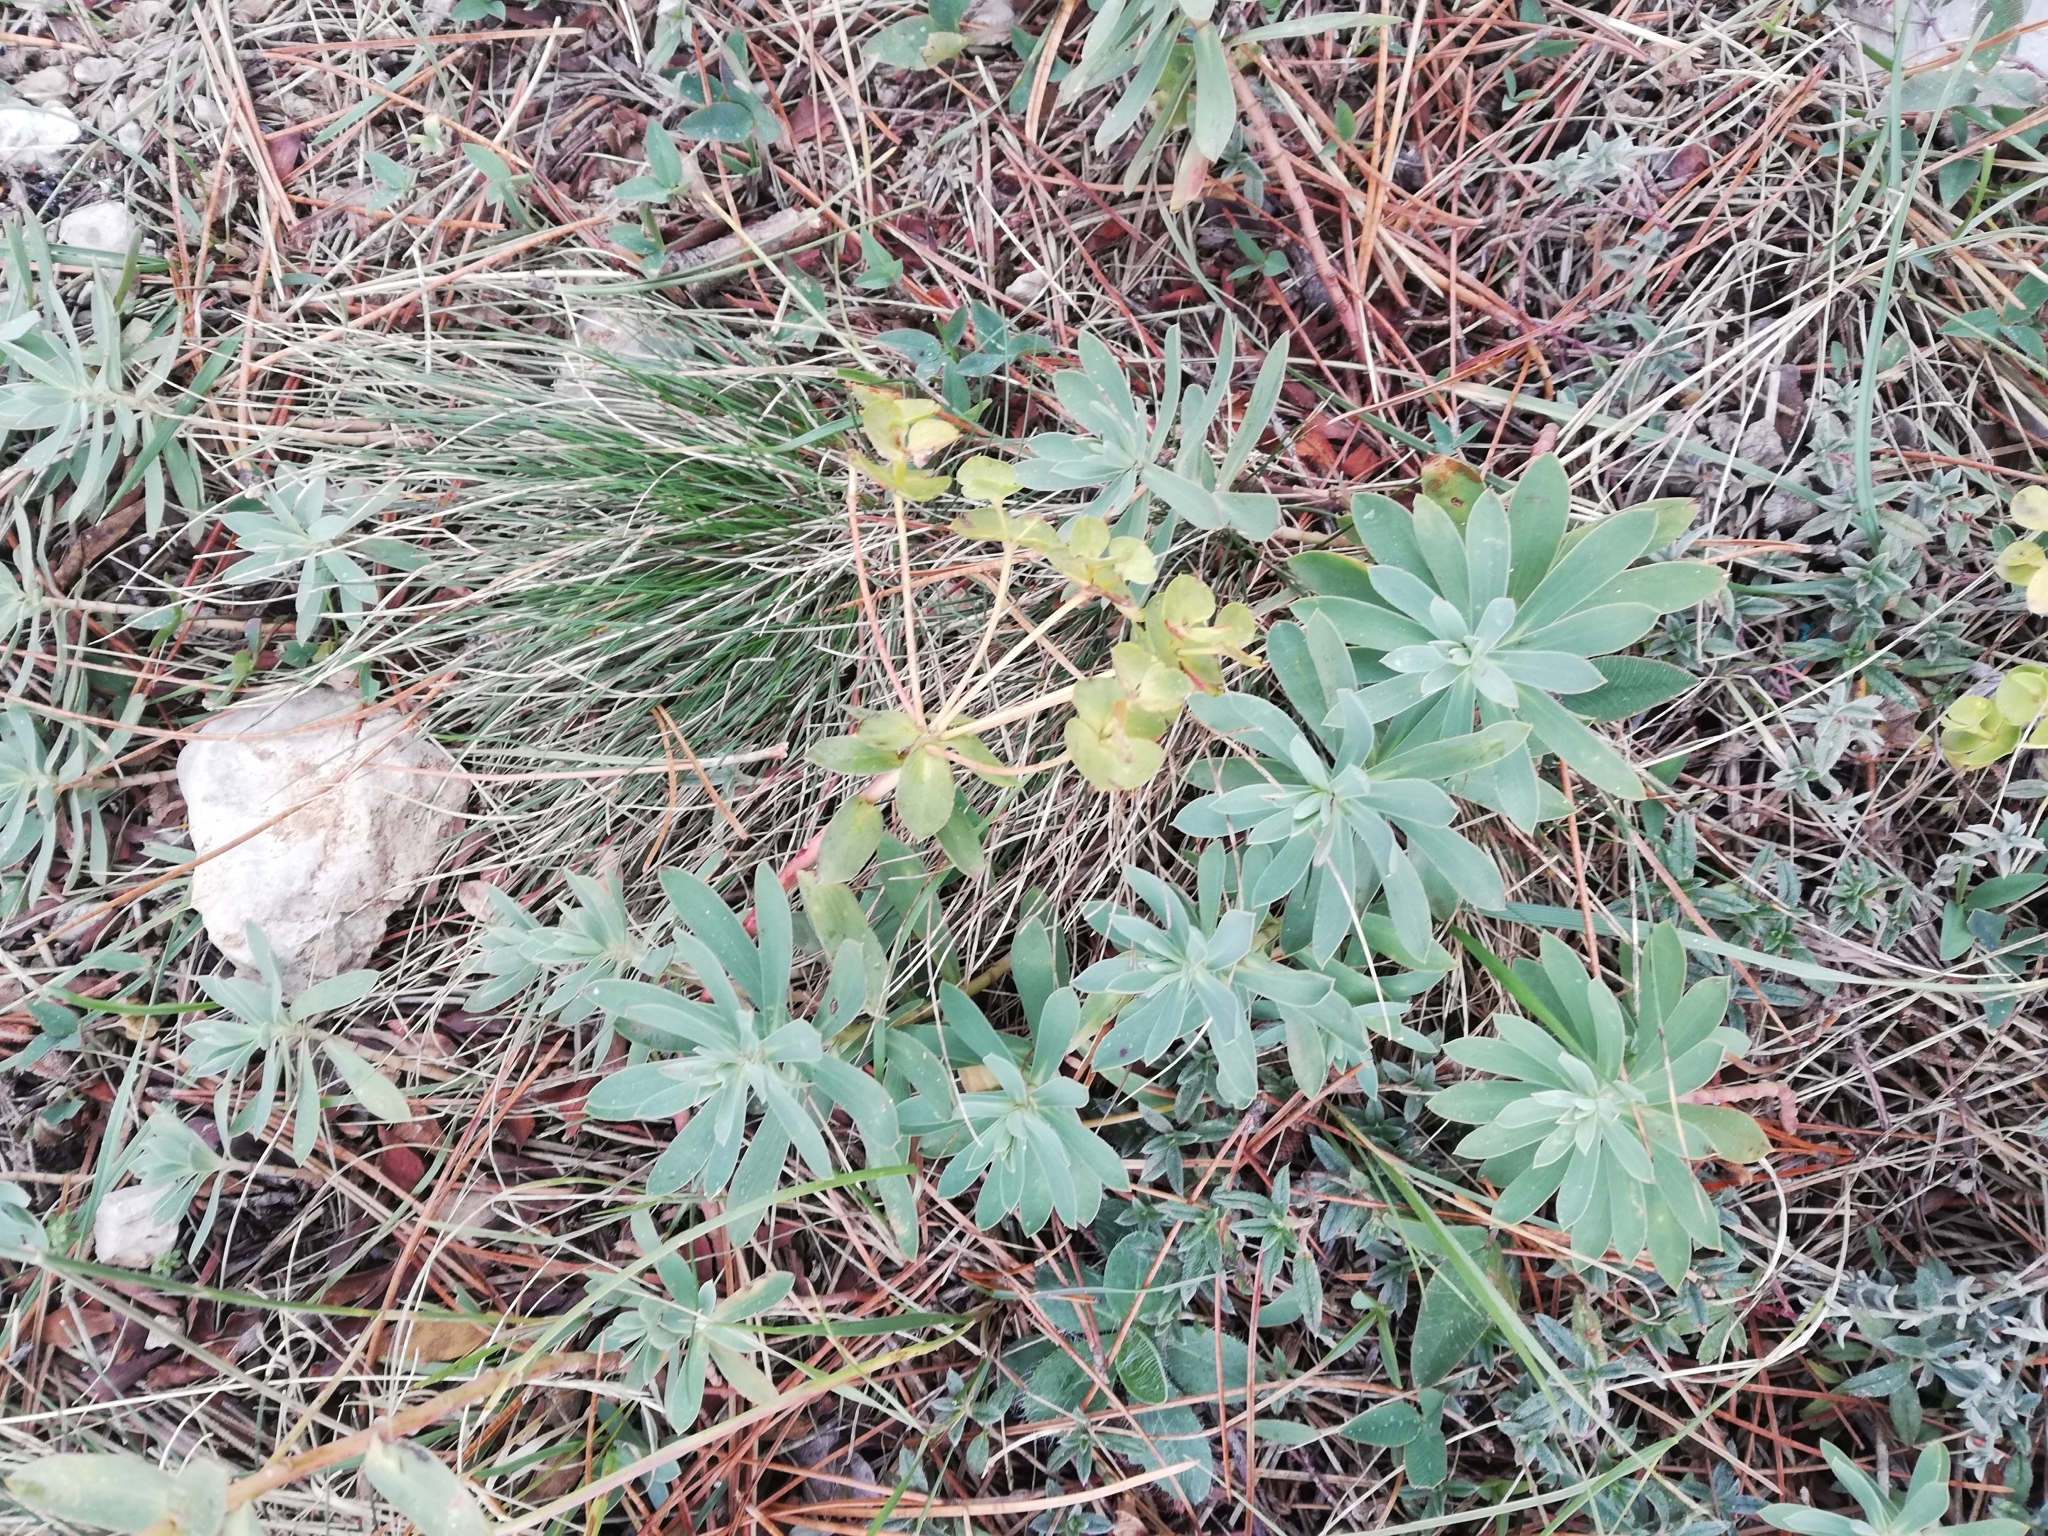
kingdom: Plantae
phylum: Tracheophyta
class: Magnoliopsida
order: Malpighiales
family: Euphorbiaceae
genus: Euphorbia
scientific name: Euphorbia petrophila
